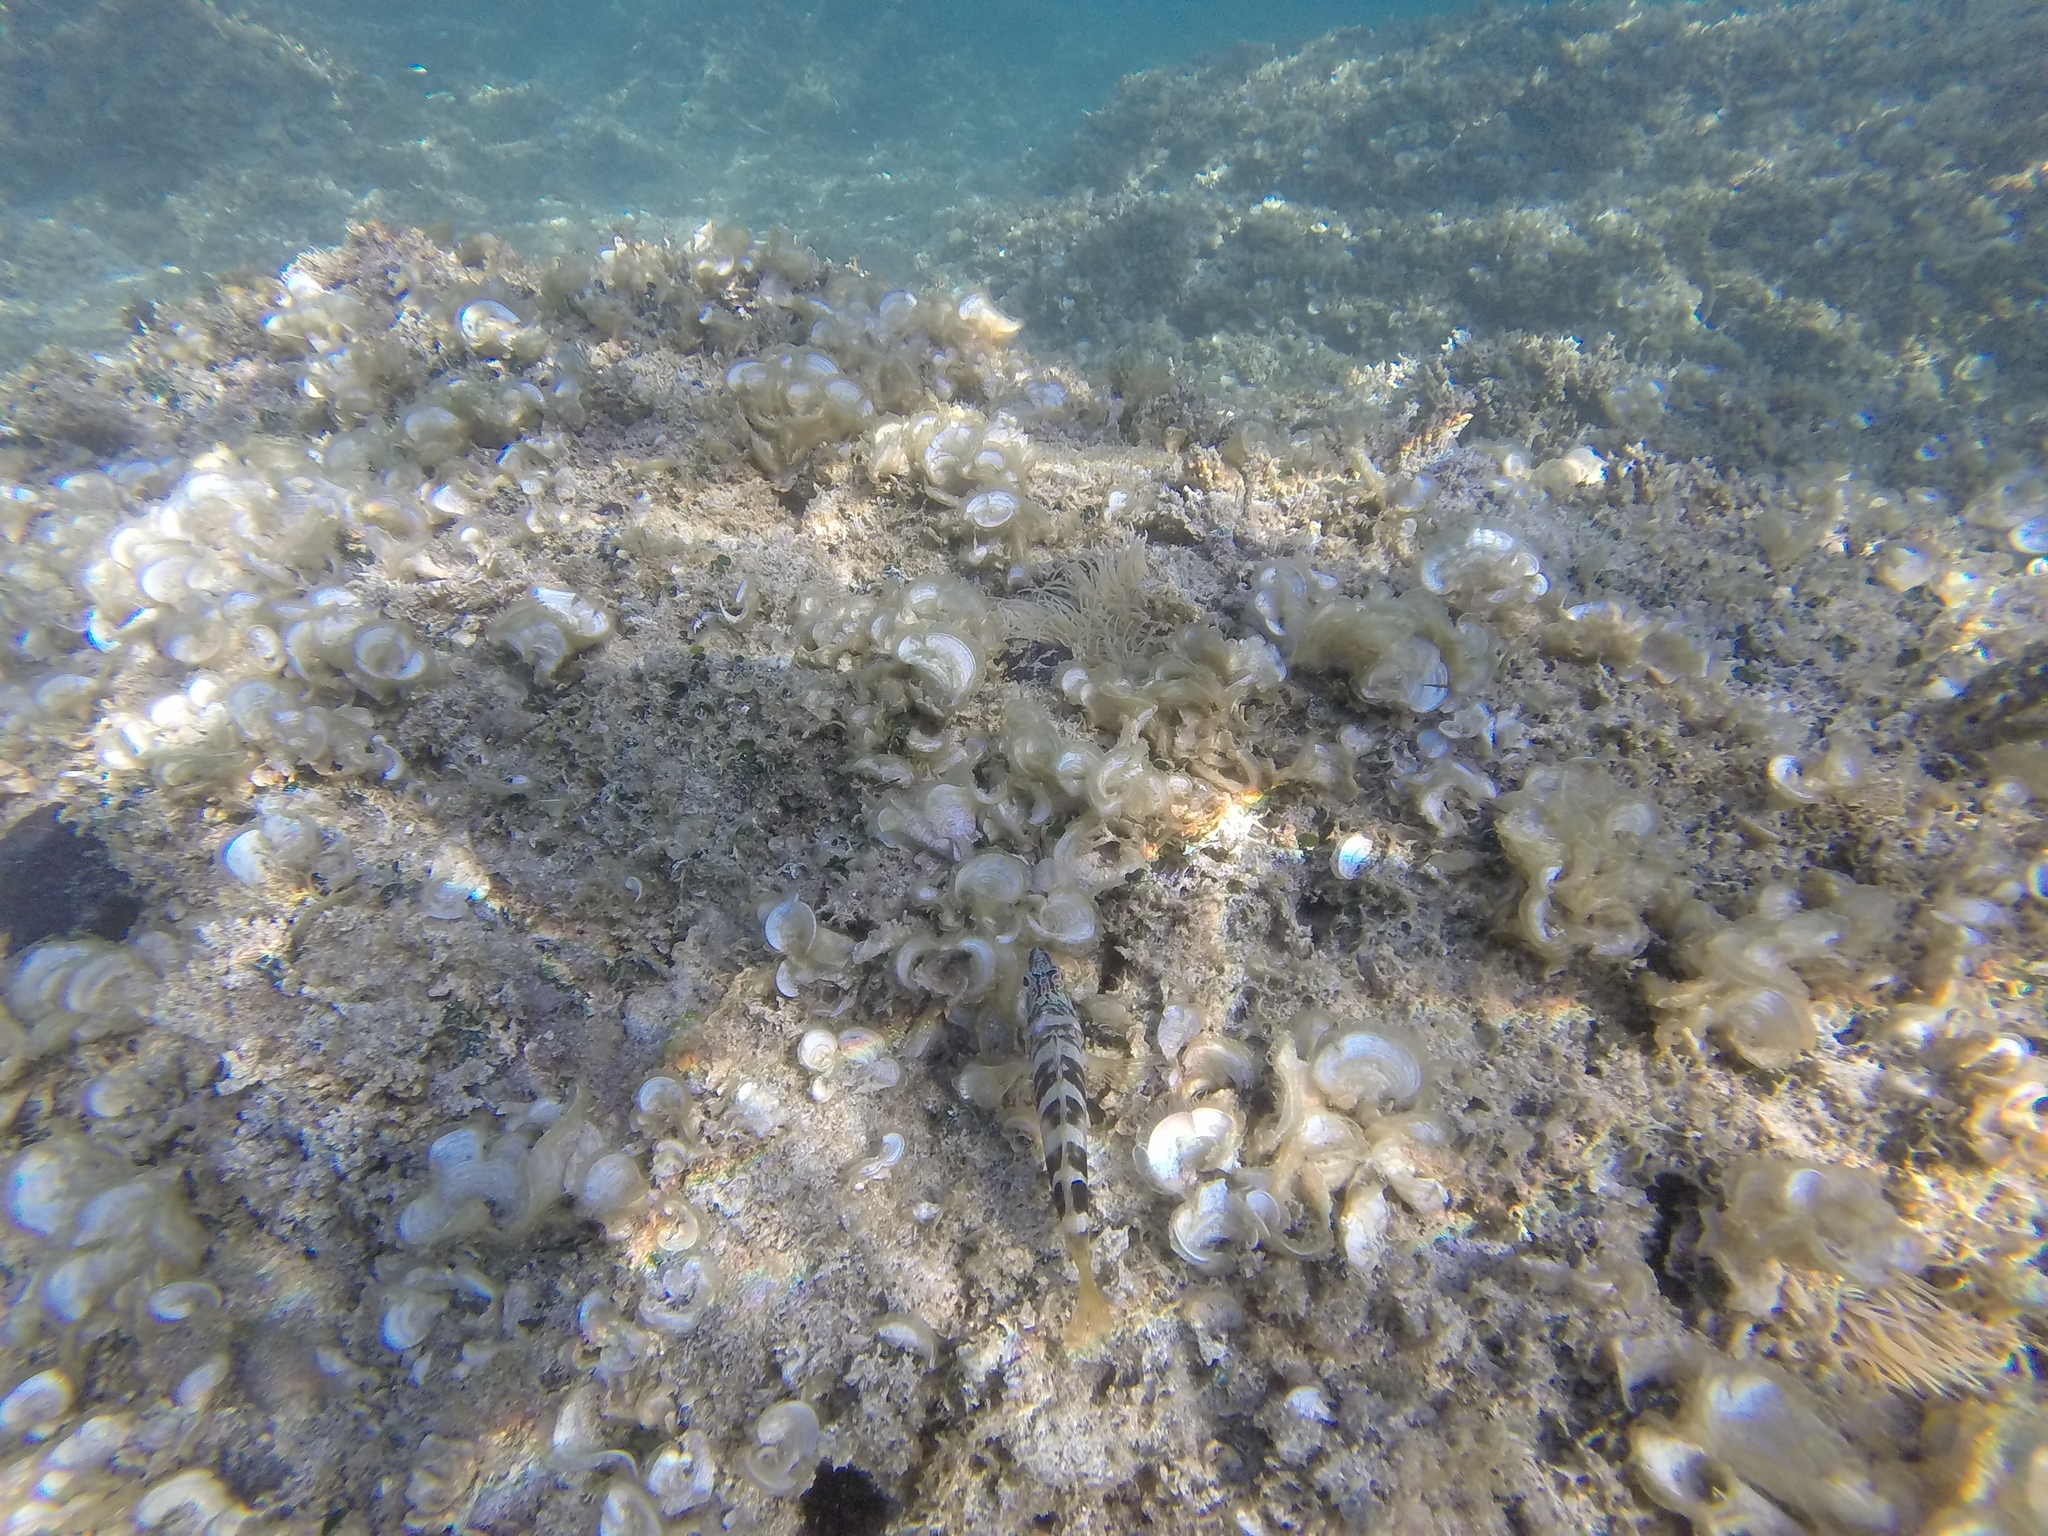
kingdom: Animalia
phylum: Chordata
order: Perciformes
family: Serranidae
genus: Serranus
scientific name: Serranus scriba
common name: Painted comber
